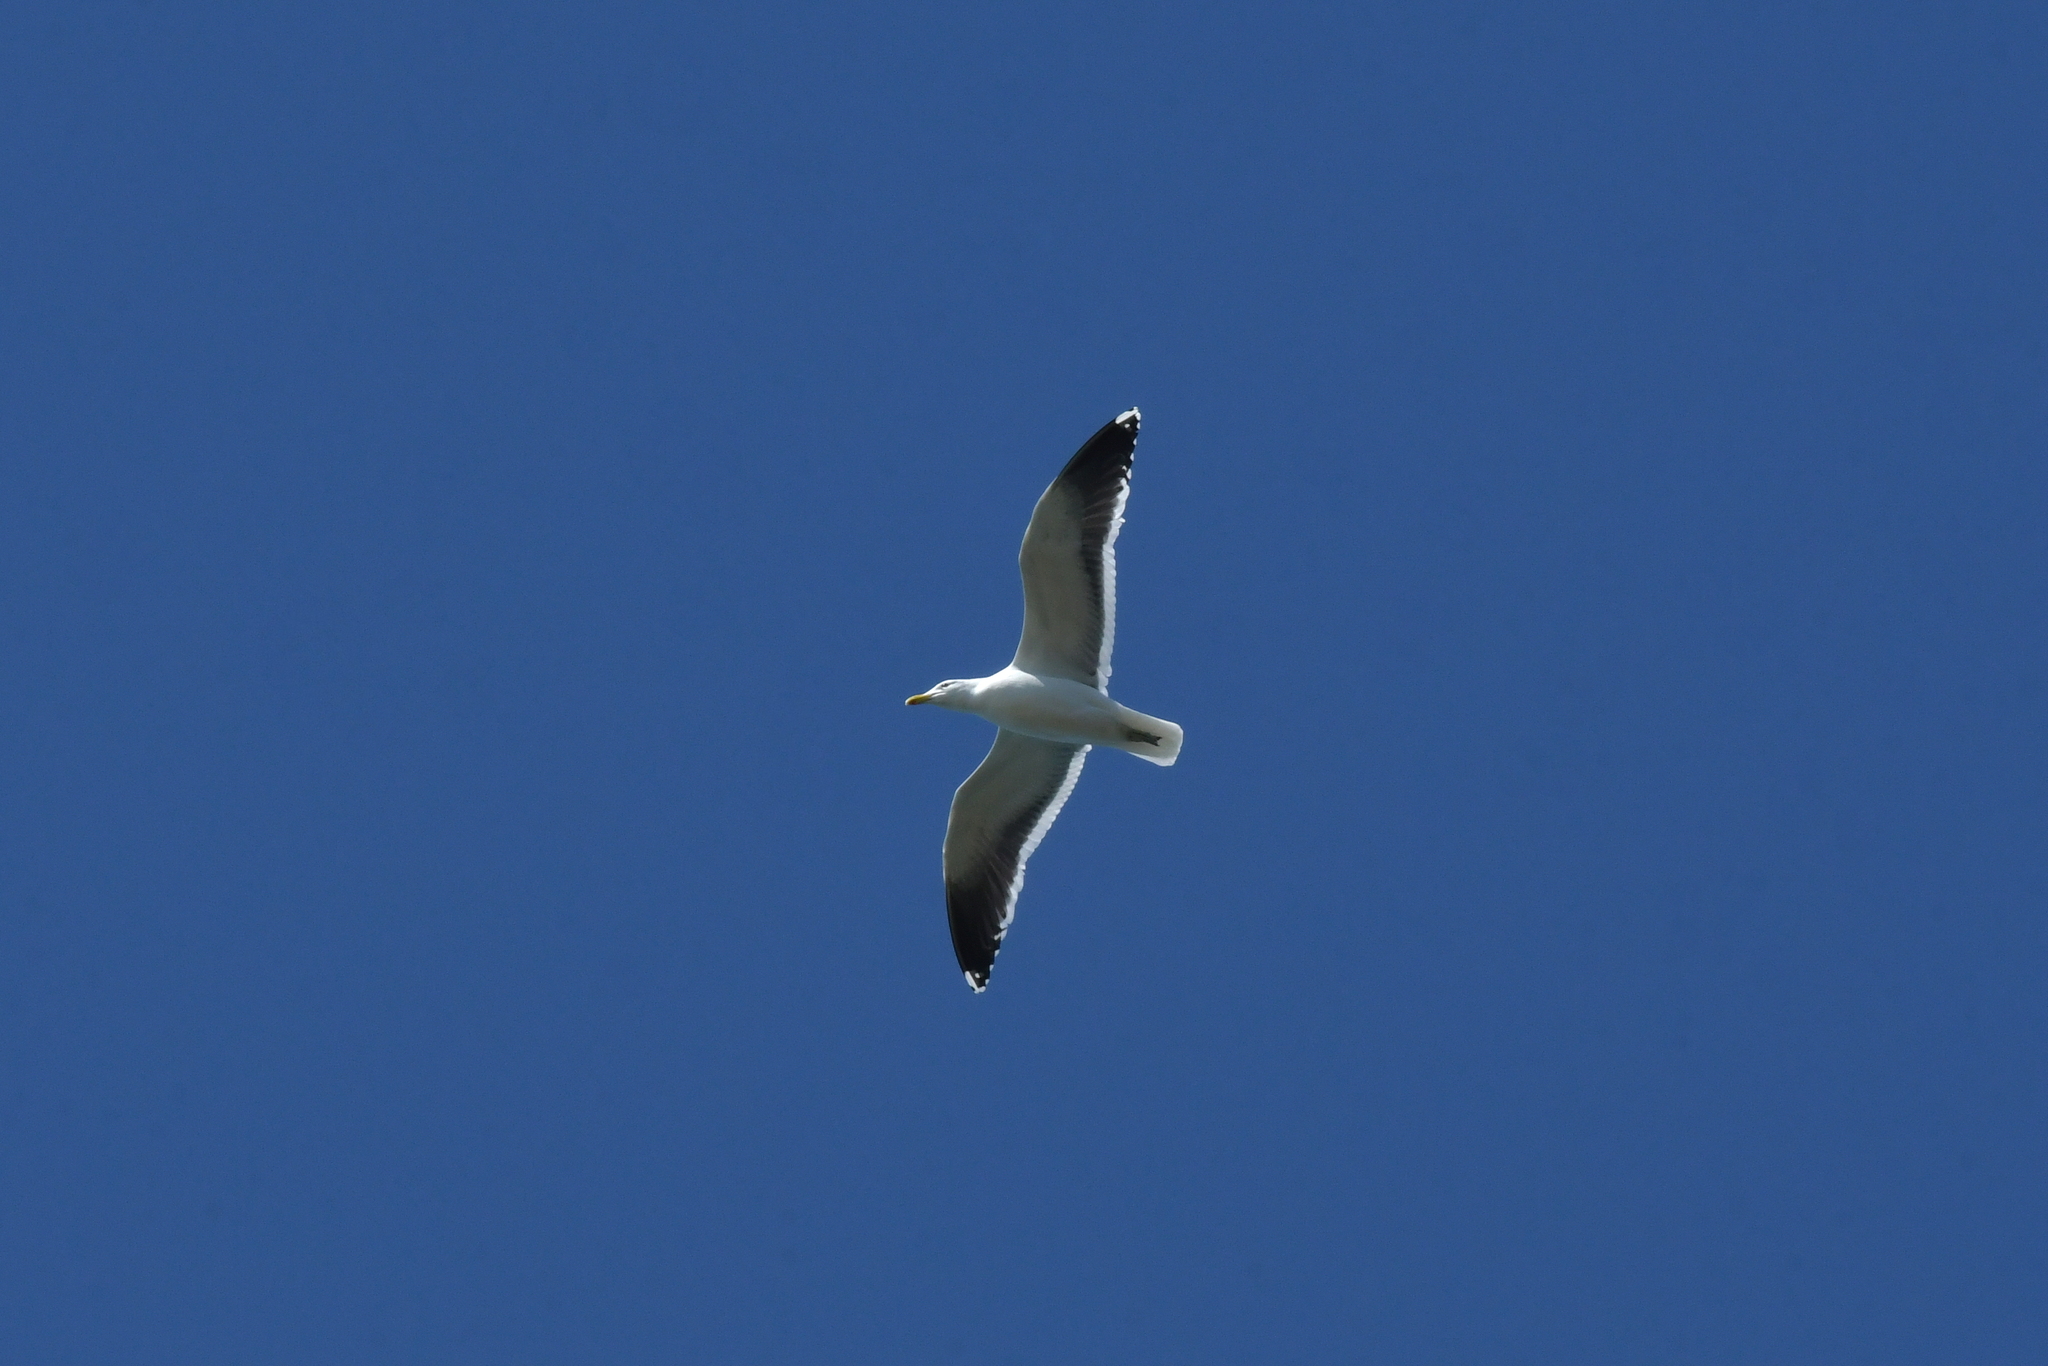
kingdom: Animalia
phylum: Chordata
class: Aves
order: Charadriiformes
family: Laridae
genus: Larus
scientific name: Larus dominicanus
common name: Kelp gull
